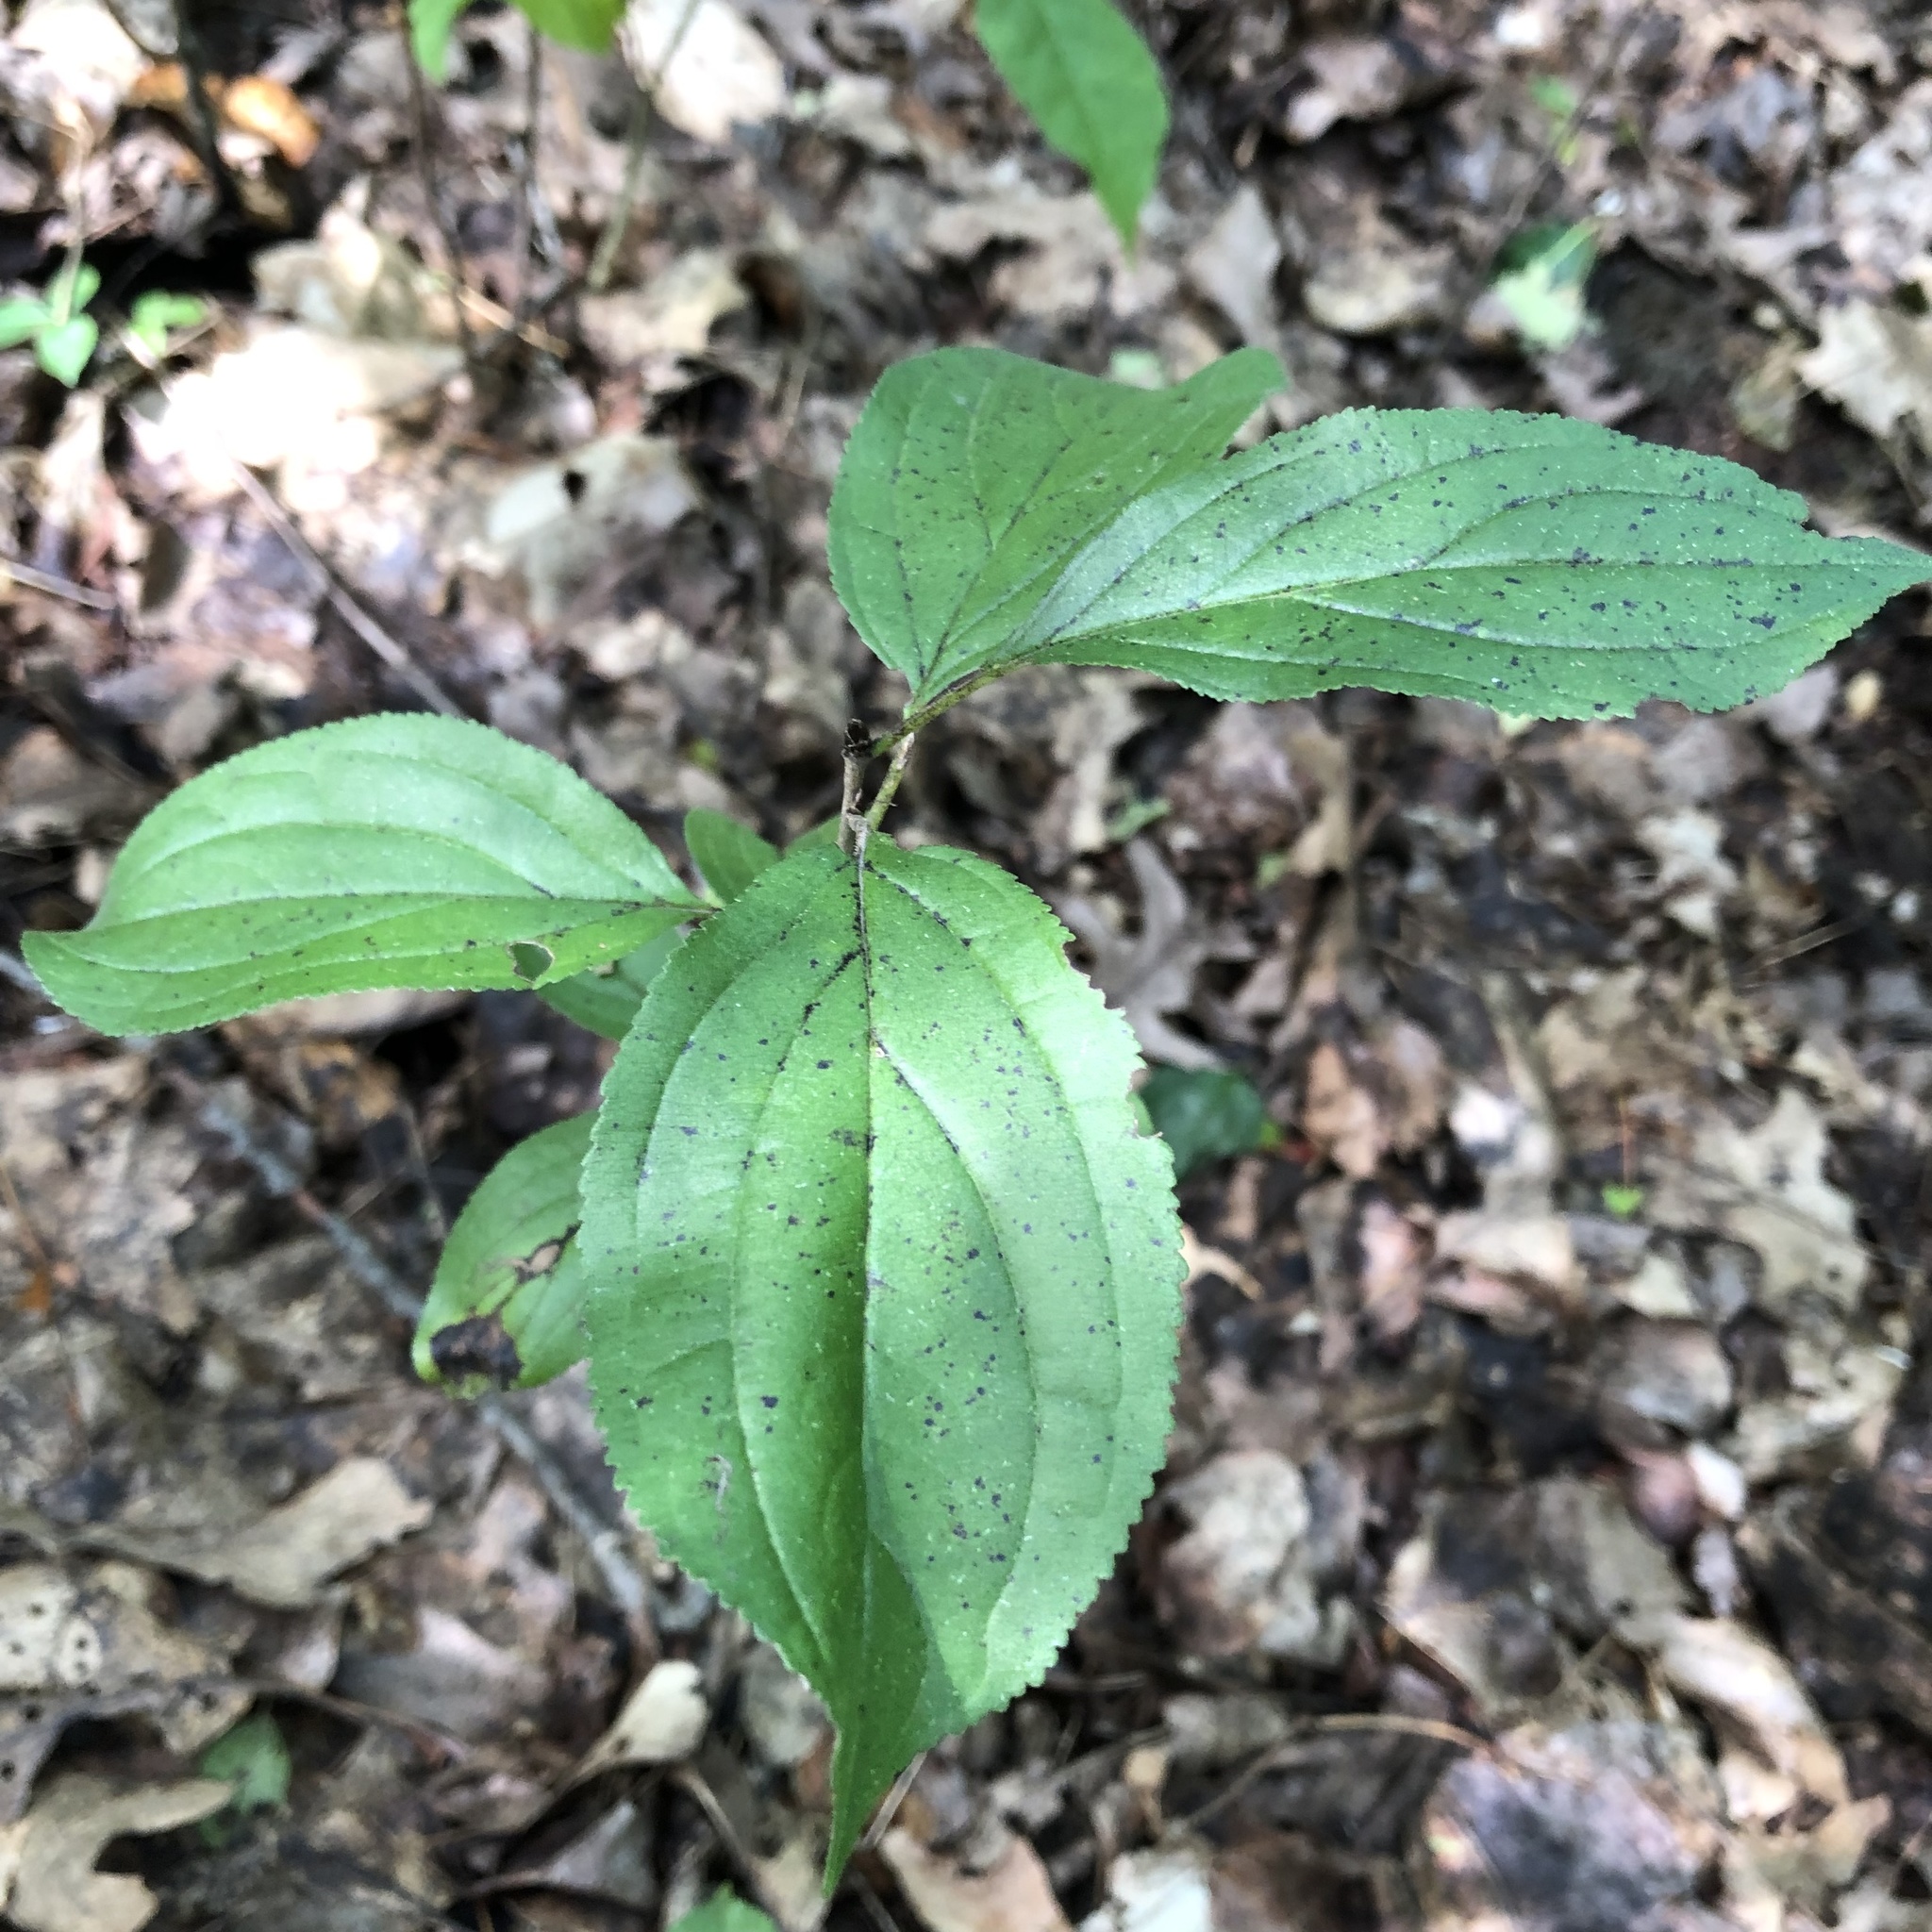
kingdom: Plantae
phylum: Tracheophyta
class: Magnoliopsida
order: Rosales
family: Rhamnaceae
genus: Rhamnus
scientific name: Rhamnus cathartica
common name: Common buckthorn
